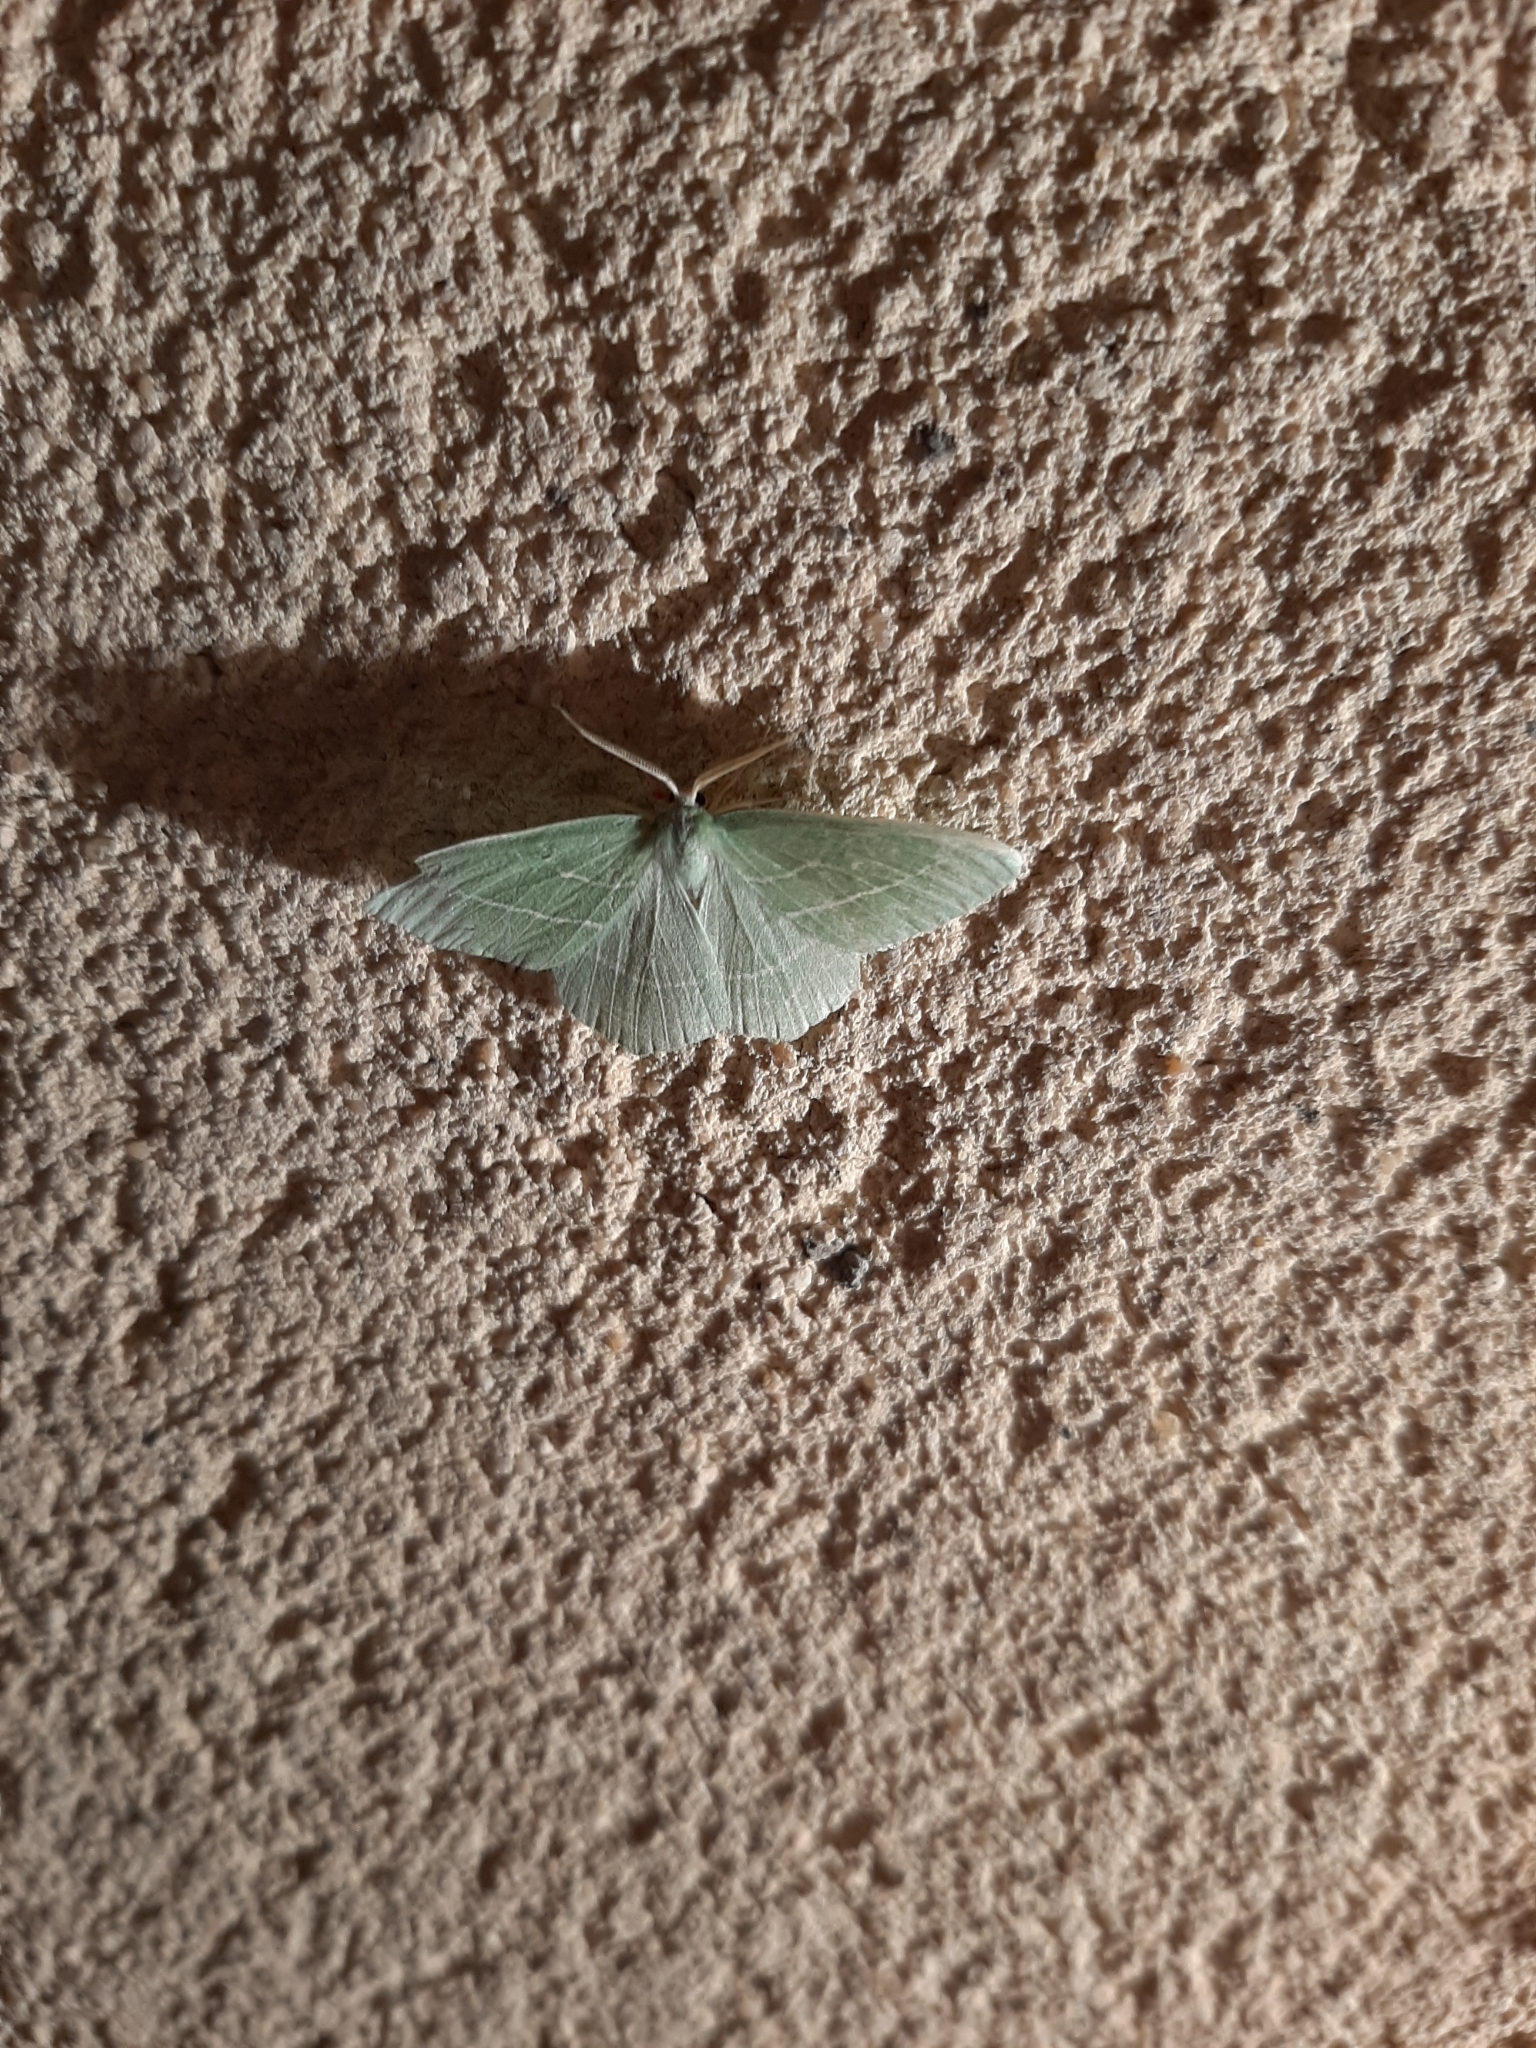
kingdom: Animalia
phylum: Arthropoda
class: Insecta
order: Lepidoptera
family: Geometridae
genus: Hemistola
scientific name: Hemistola chrysoprasaria
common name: Small emerald
